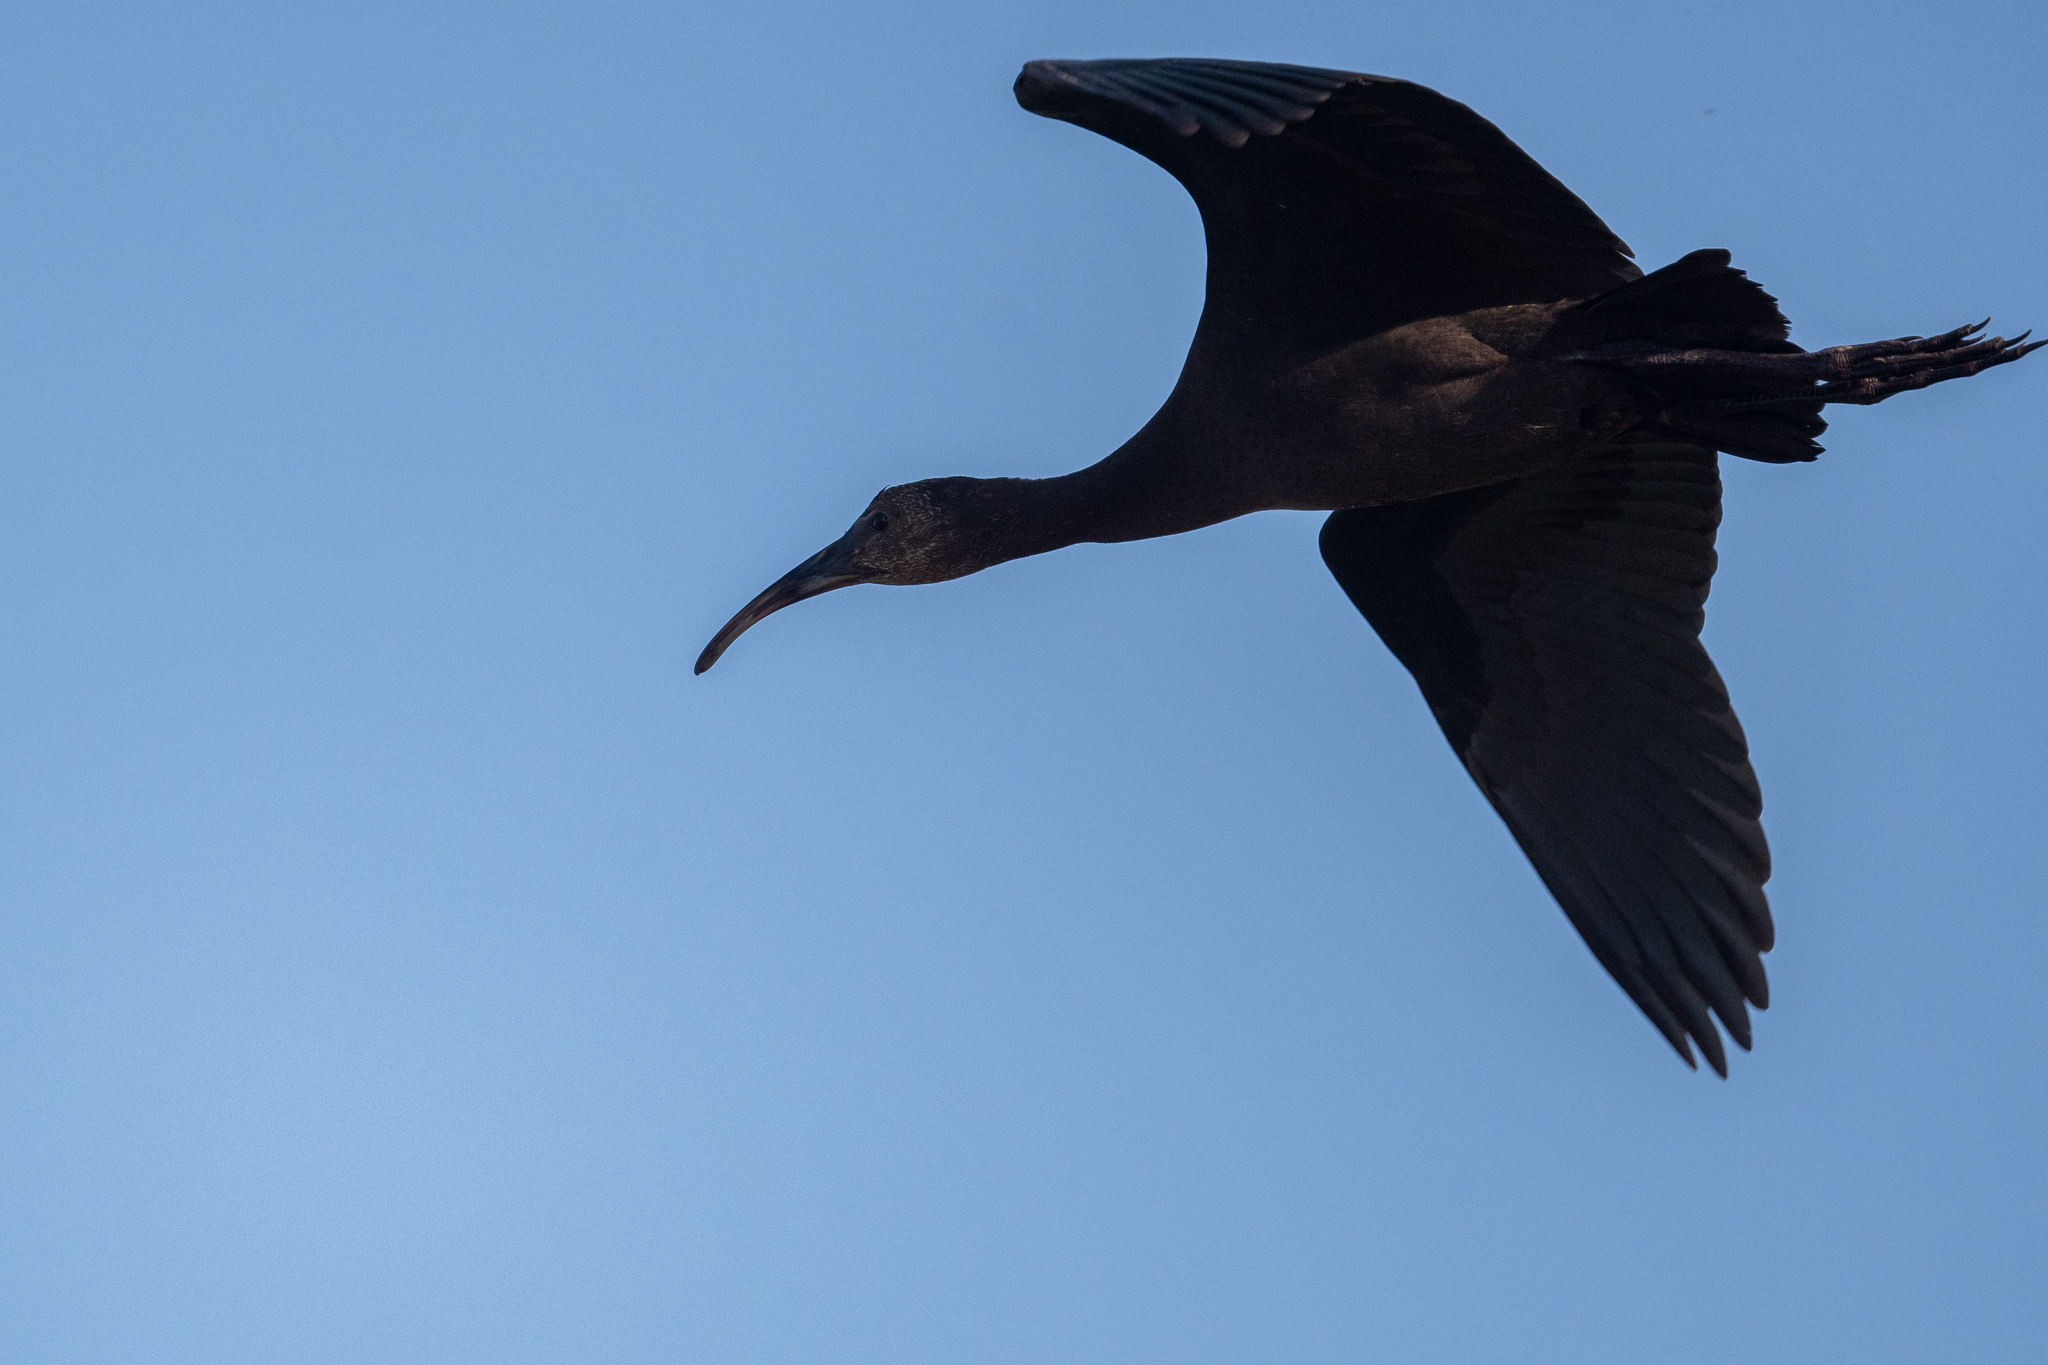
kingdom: Animalia
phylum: Chordata
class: Aves
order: Pelecaniformes
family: Threskiornithidae
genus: Plegadis
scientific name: Plegadis chihi
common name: White-faced ibis
